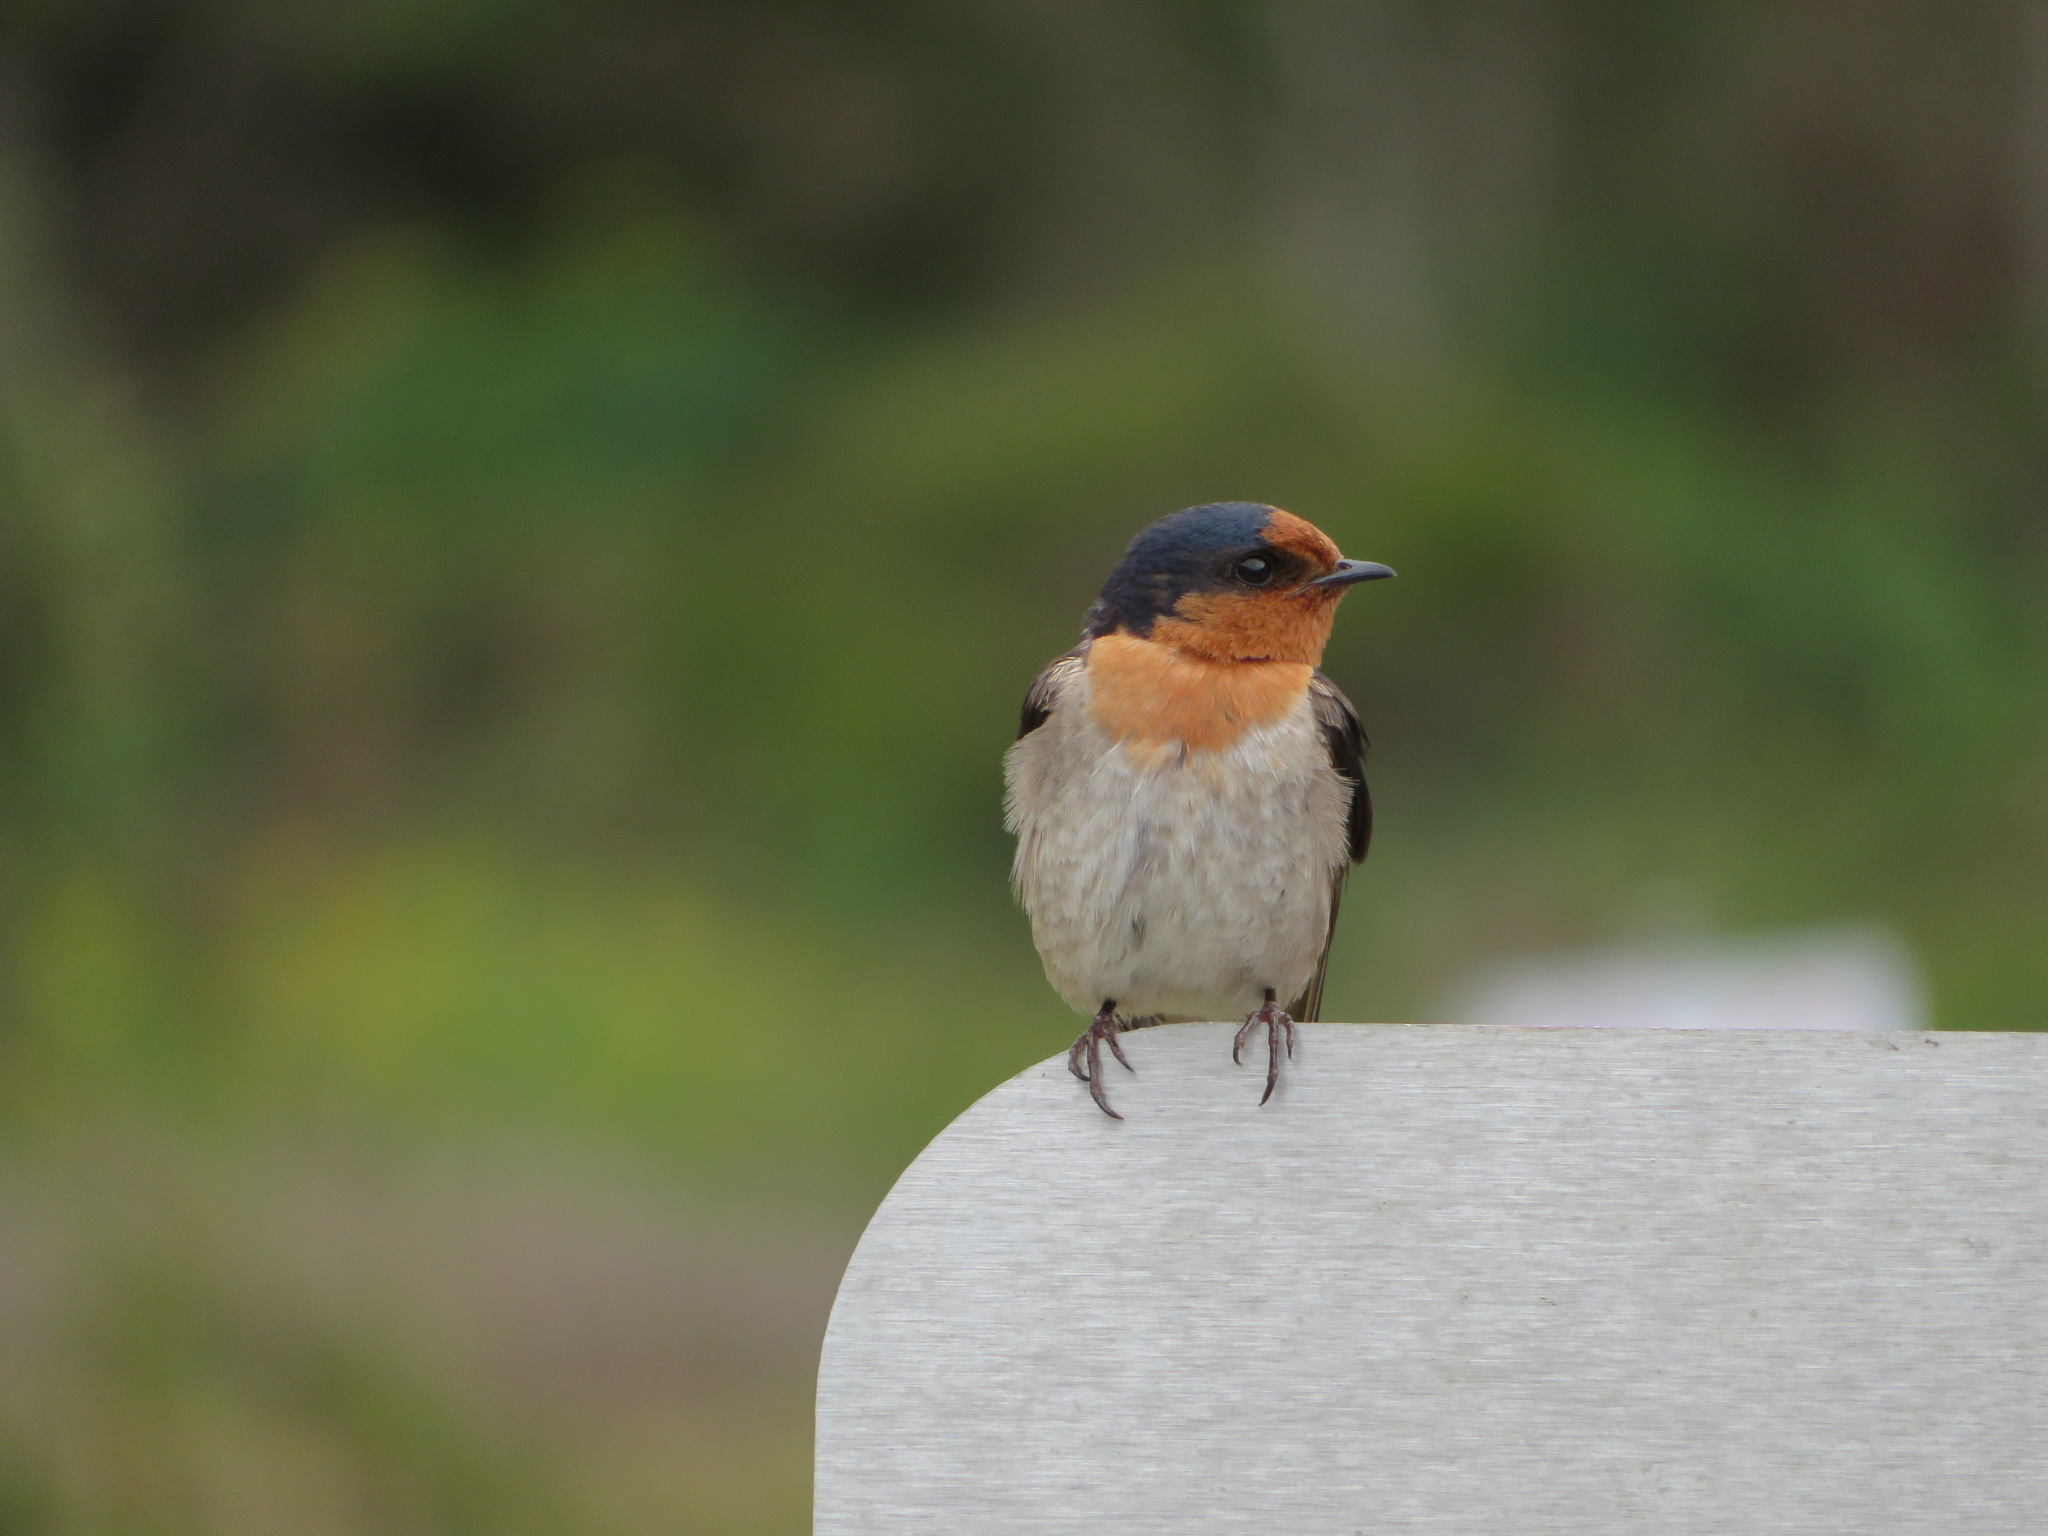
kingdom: Animalia
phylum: Chordata
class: Aves
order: Passeriformes
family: Hirundinidae
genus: Hirundo
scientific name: Hirundo neoxena
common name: Welcome swallow
